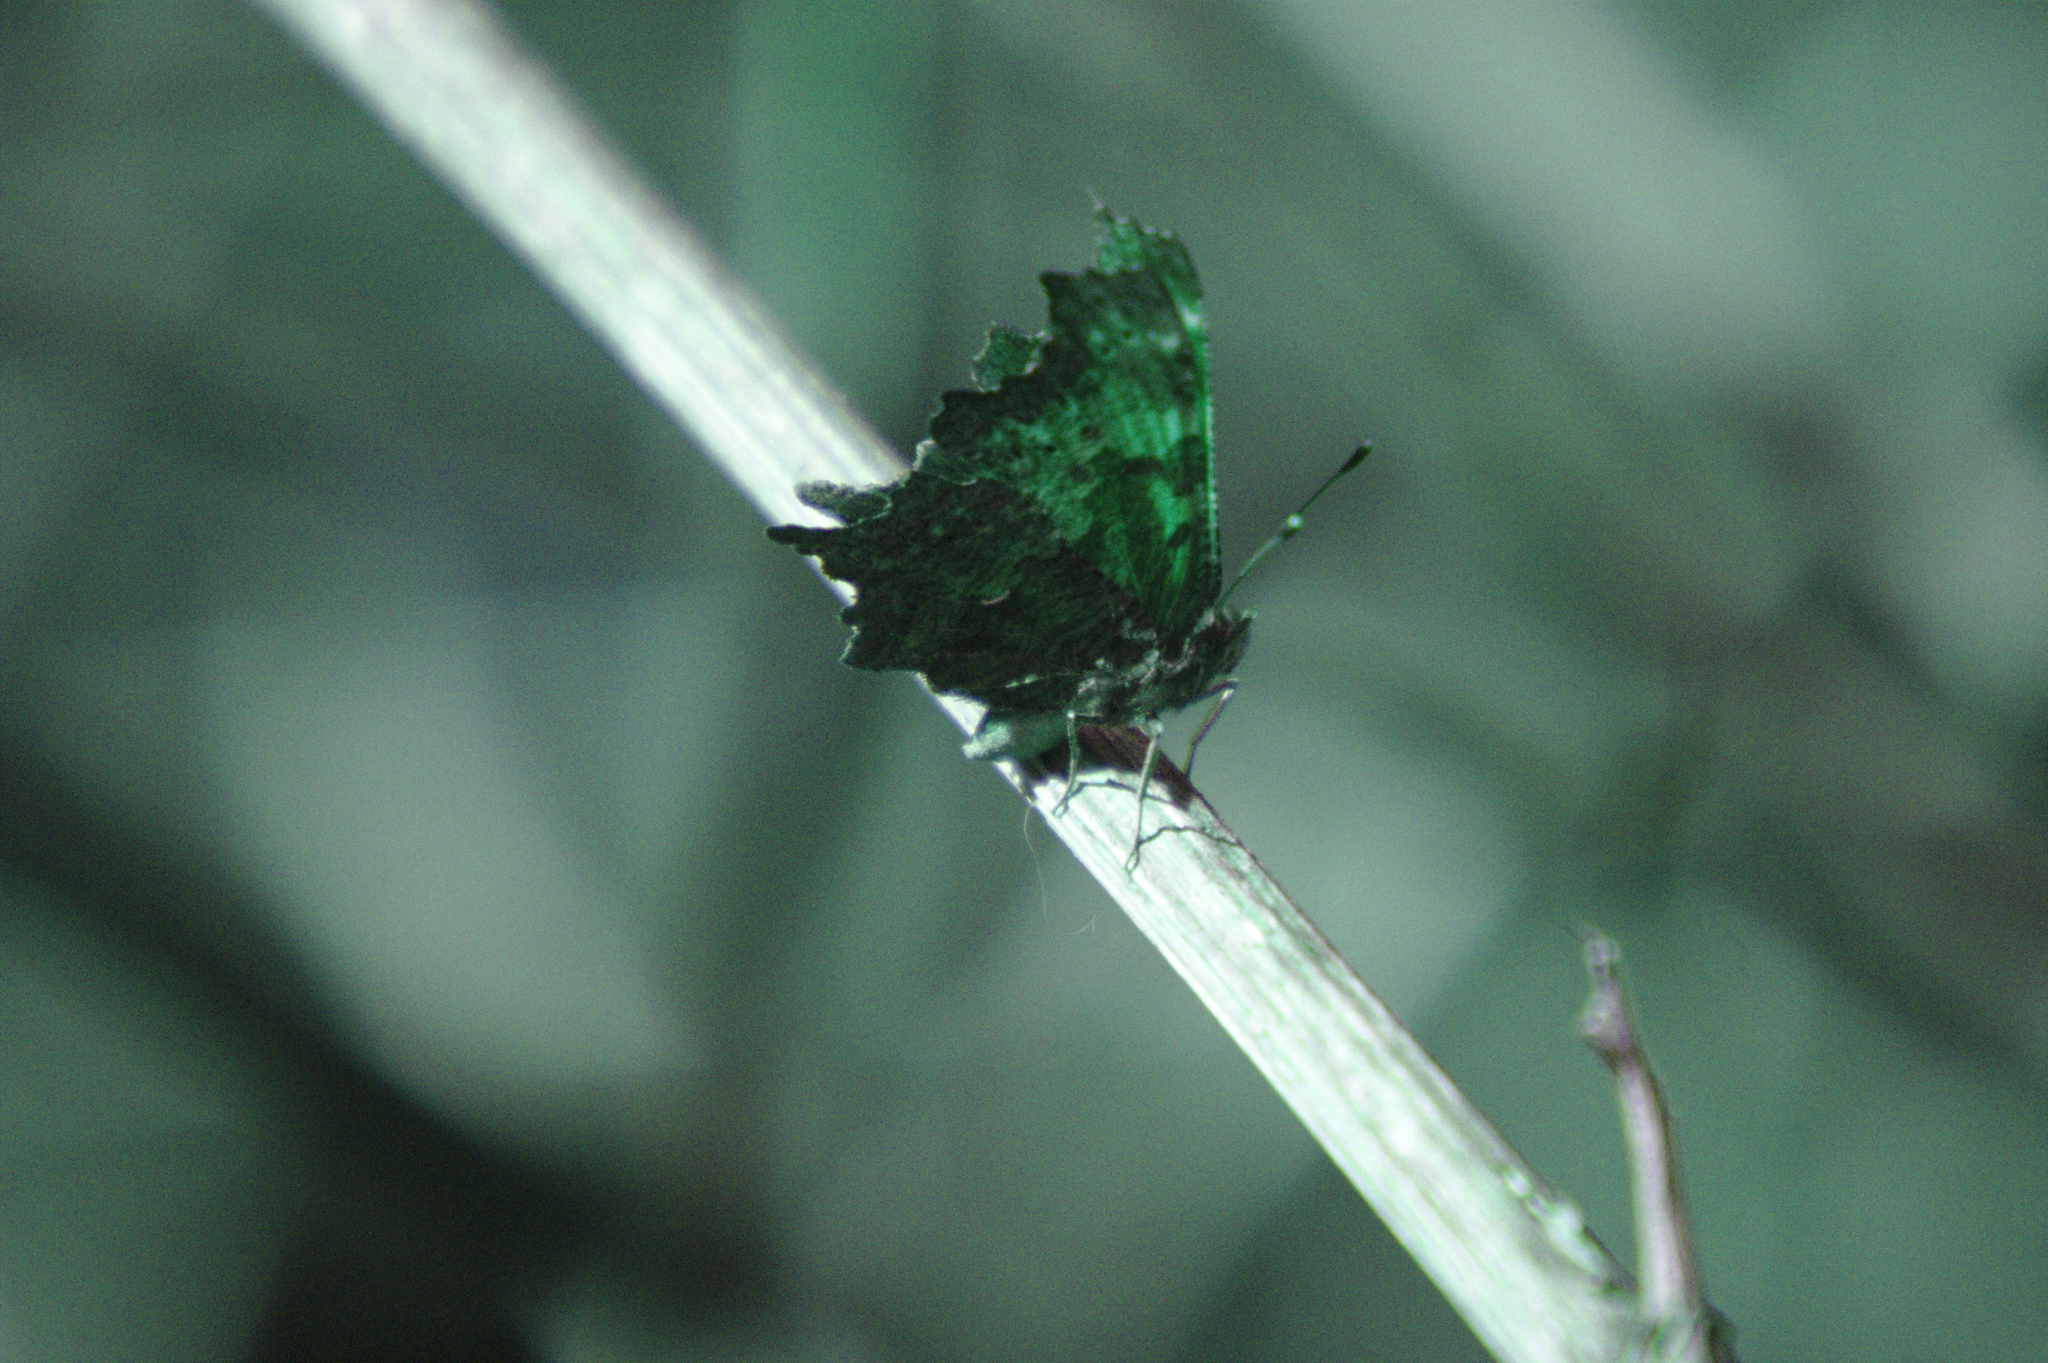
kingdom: Animalia
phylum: Arthropoda
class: Insecta
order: Lepidoptera
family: Nymphalidae
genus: Polygonia
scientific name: Polygonia progne
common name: Gray comma
